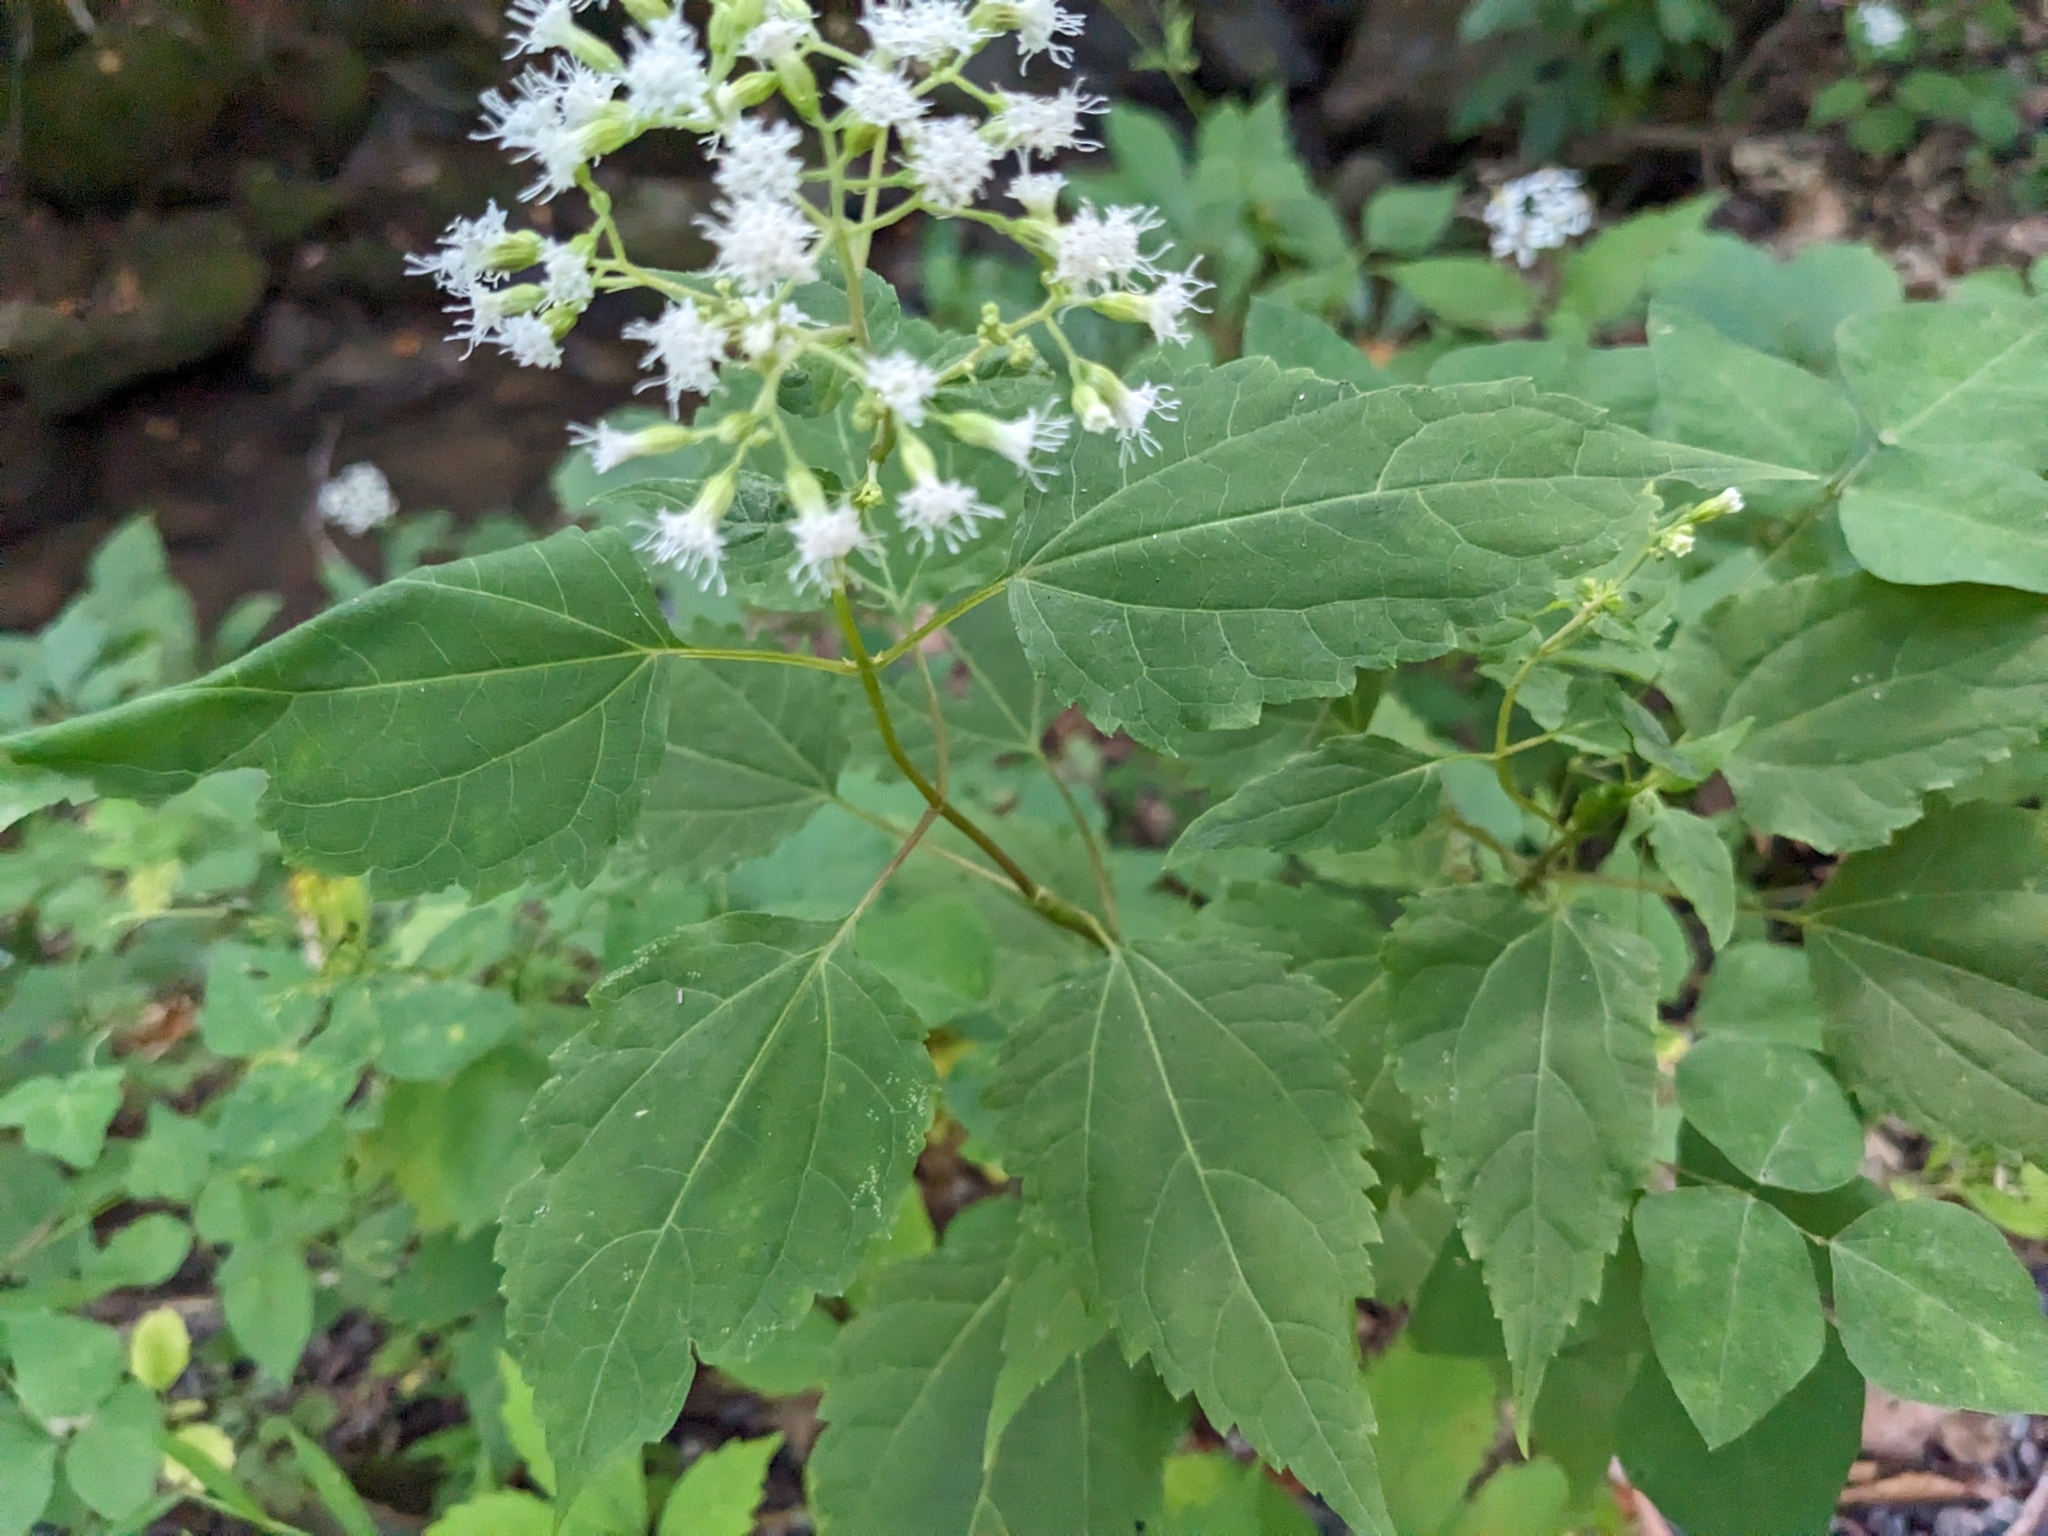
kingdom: Plantae
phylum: Tracheophyta
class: Magnoliopsida
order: Asterales
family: Asteraceae
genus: Ageratina
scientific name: Ageratina altissima
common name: White snakeroot
